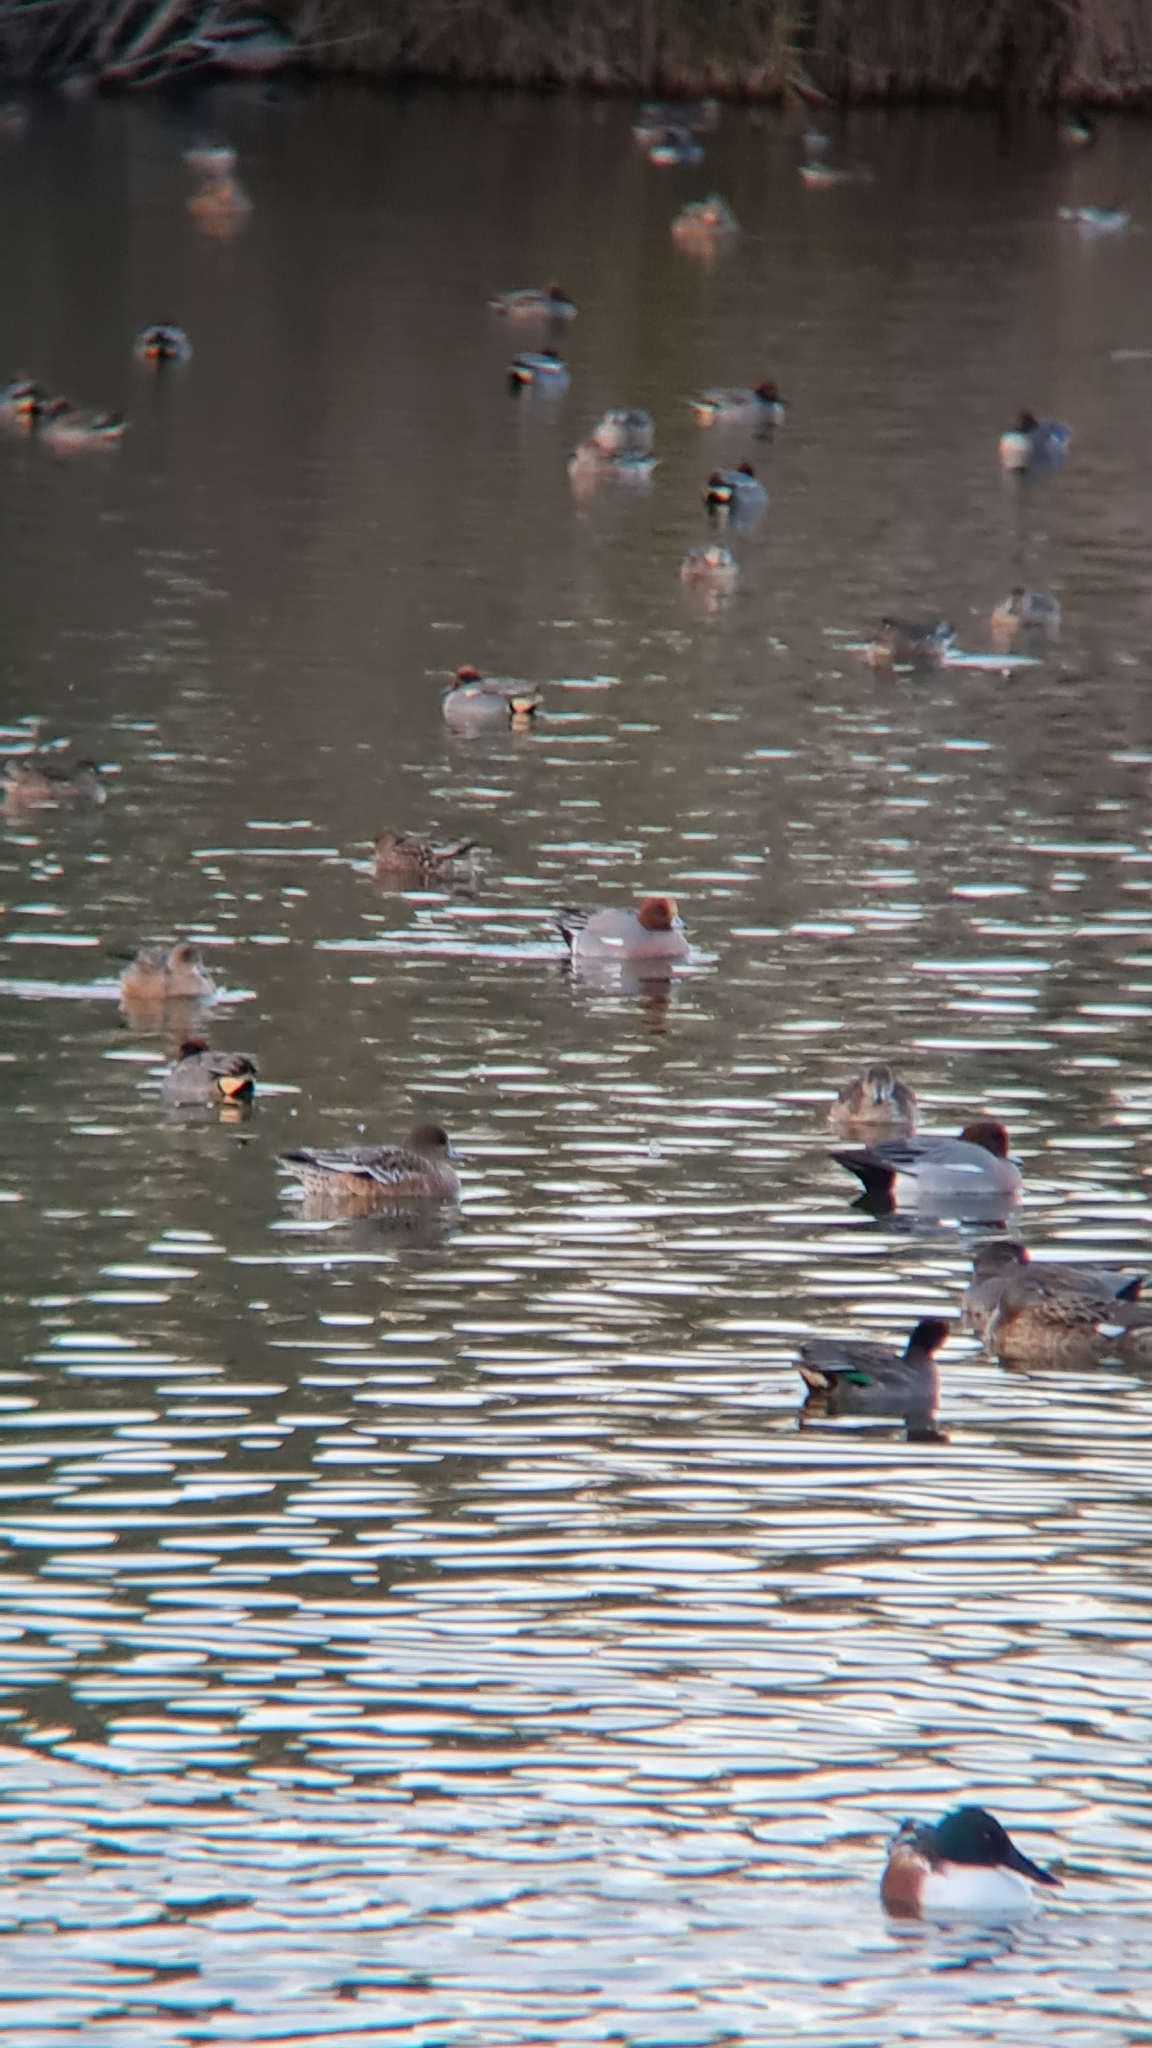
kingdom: Animalia
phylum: Chordata
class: Aves
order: Anseriformes
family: Anatidae
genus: Mareca
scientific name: Mareca penelope
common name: Eurasian wigeon
